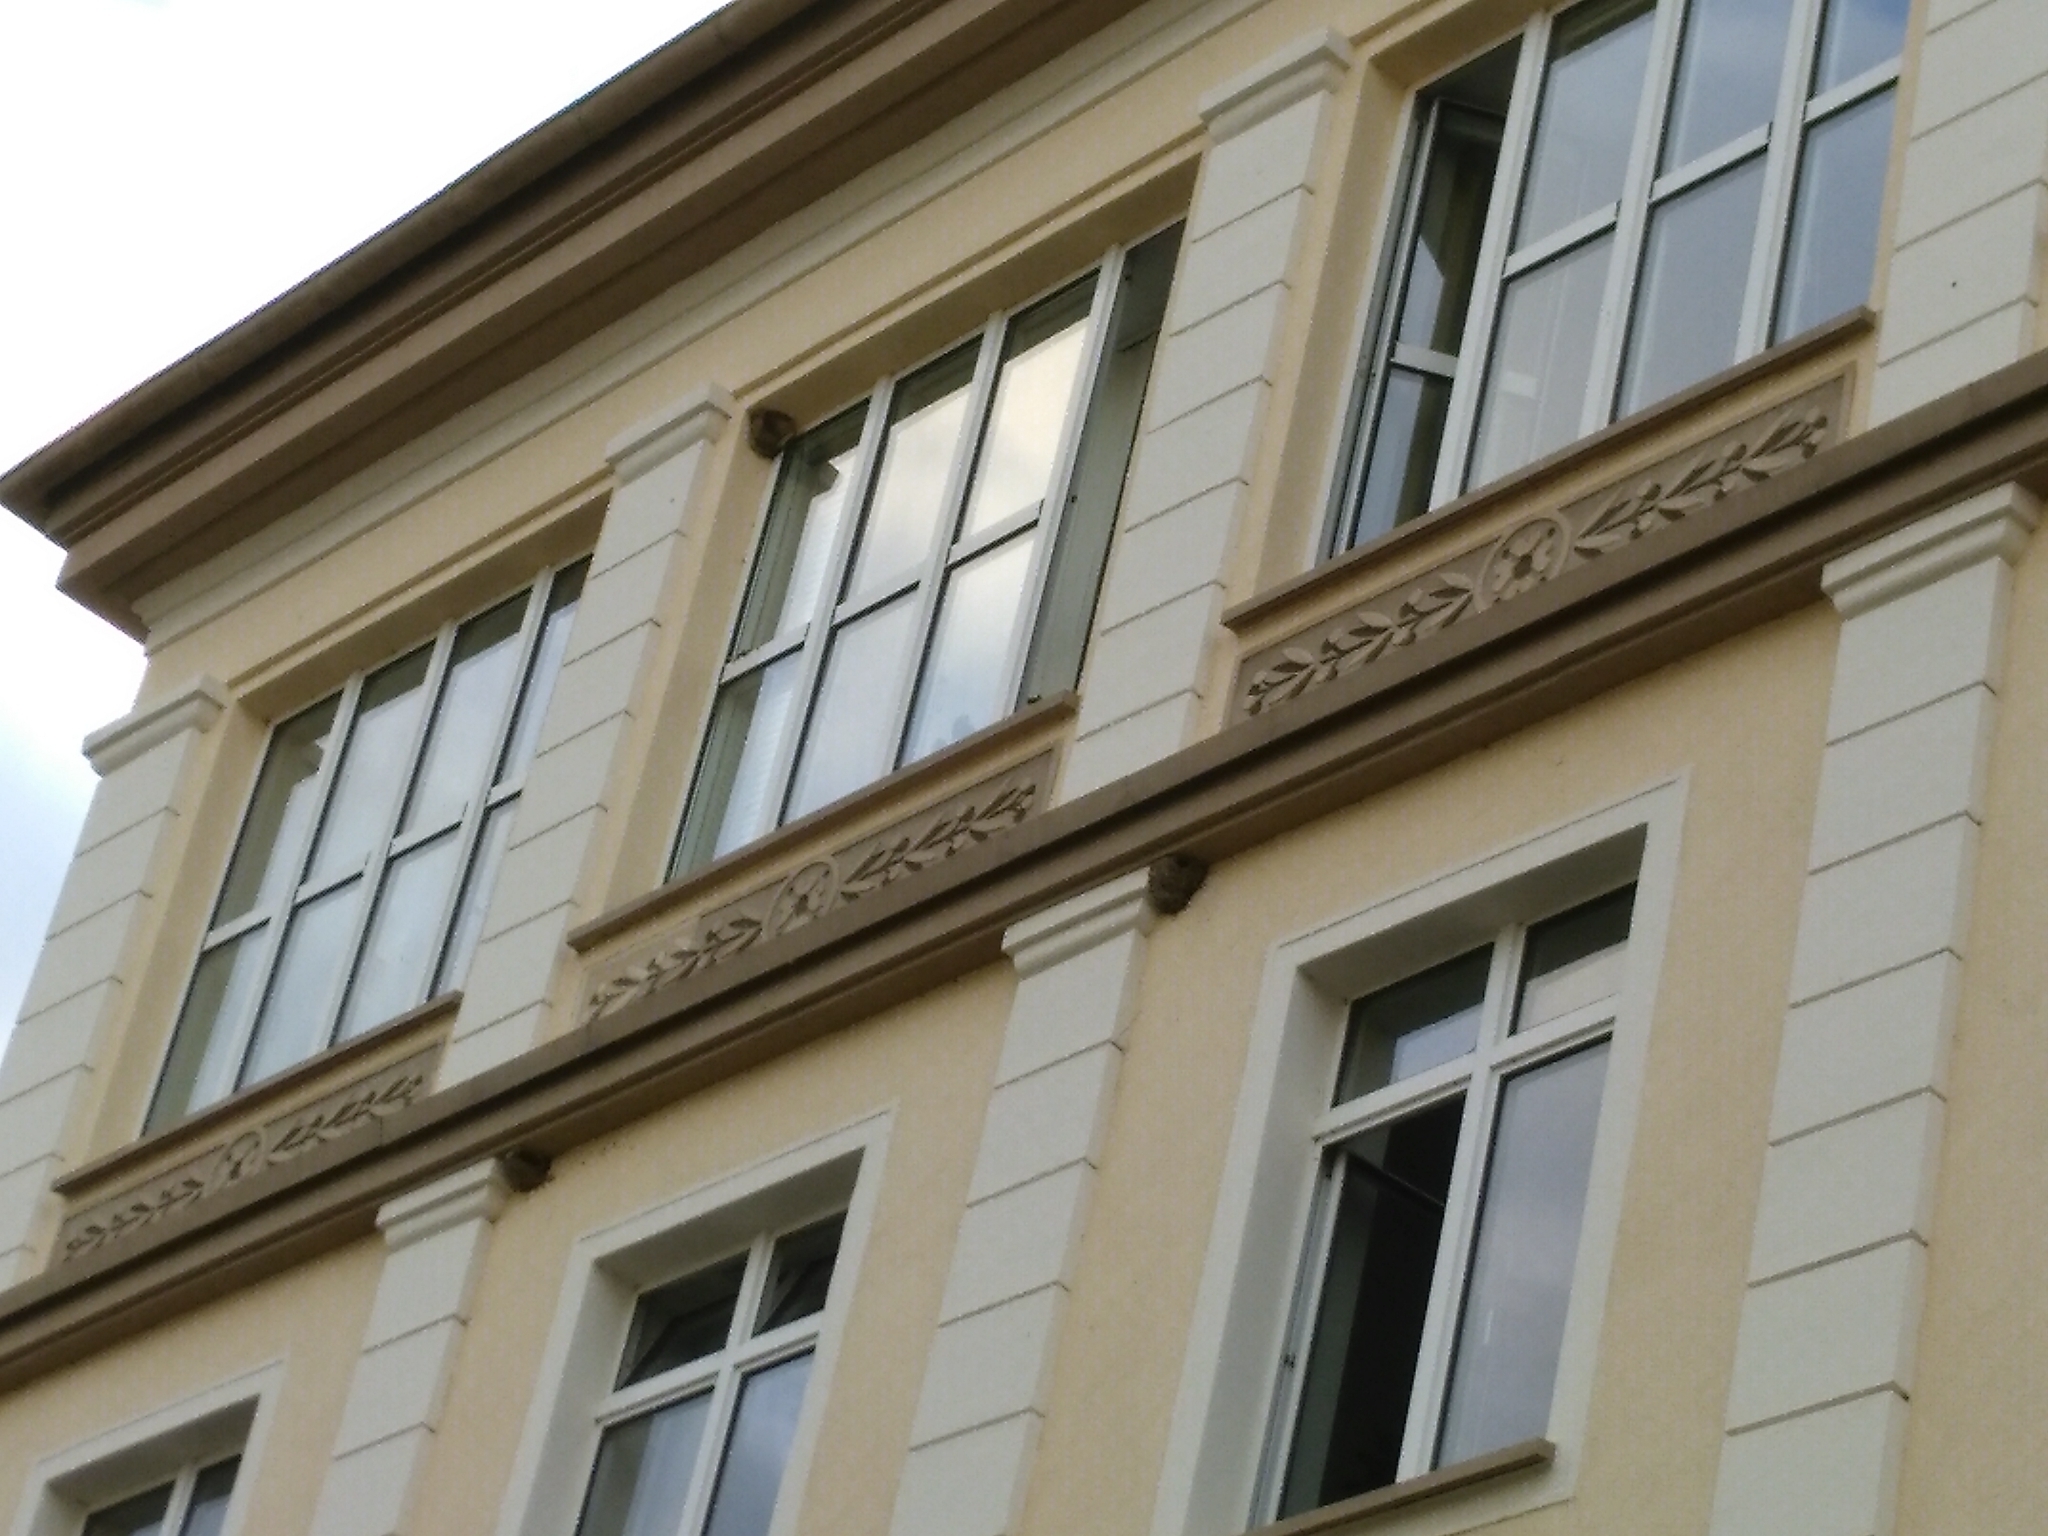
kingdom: Animalia
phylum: Chordata
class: Aves
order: Passeriformes
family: Hirundinidae
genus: Delichon
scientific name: Delichon urbicum
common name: Common house martin
